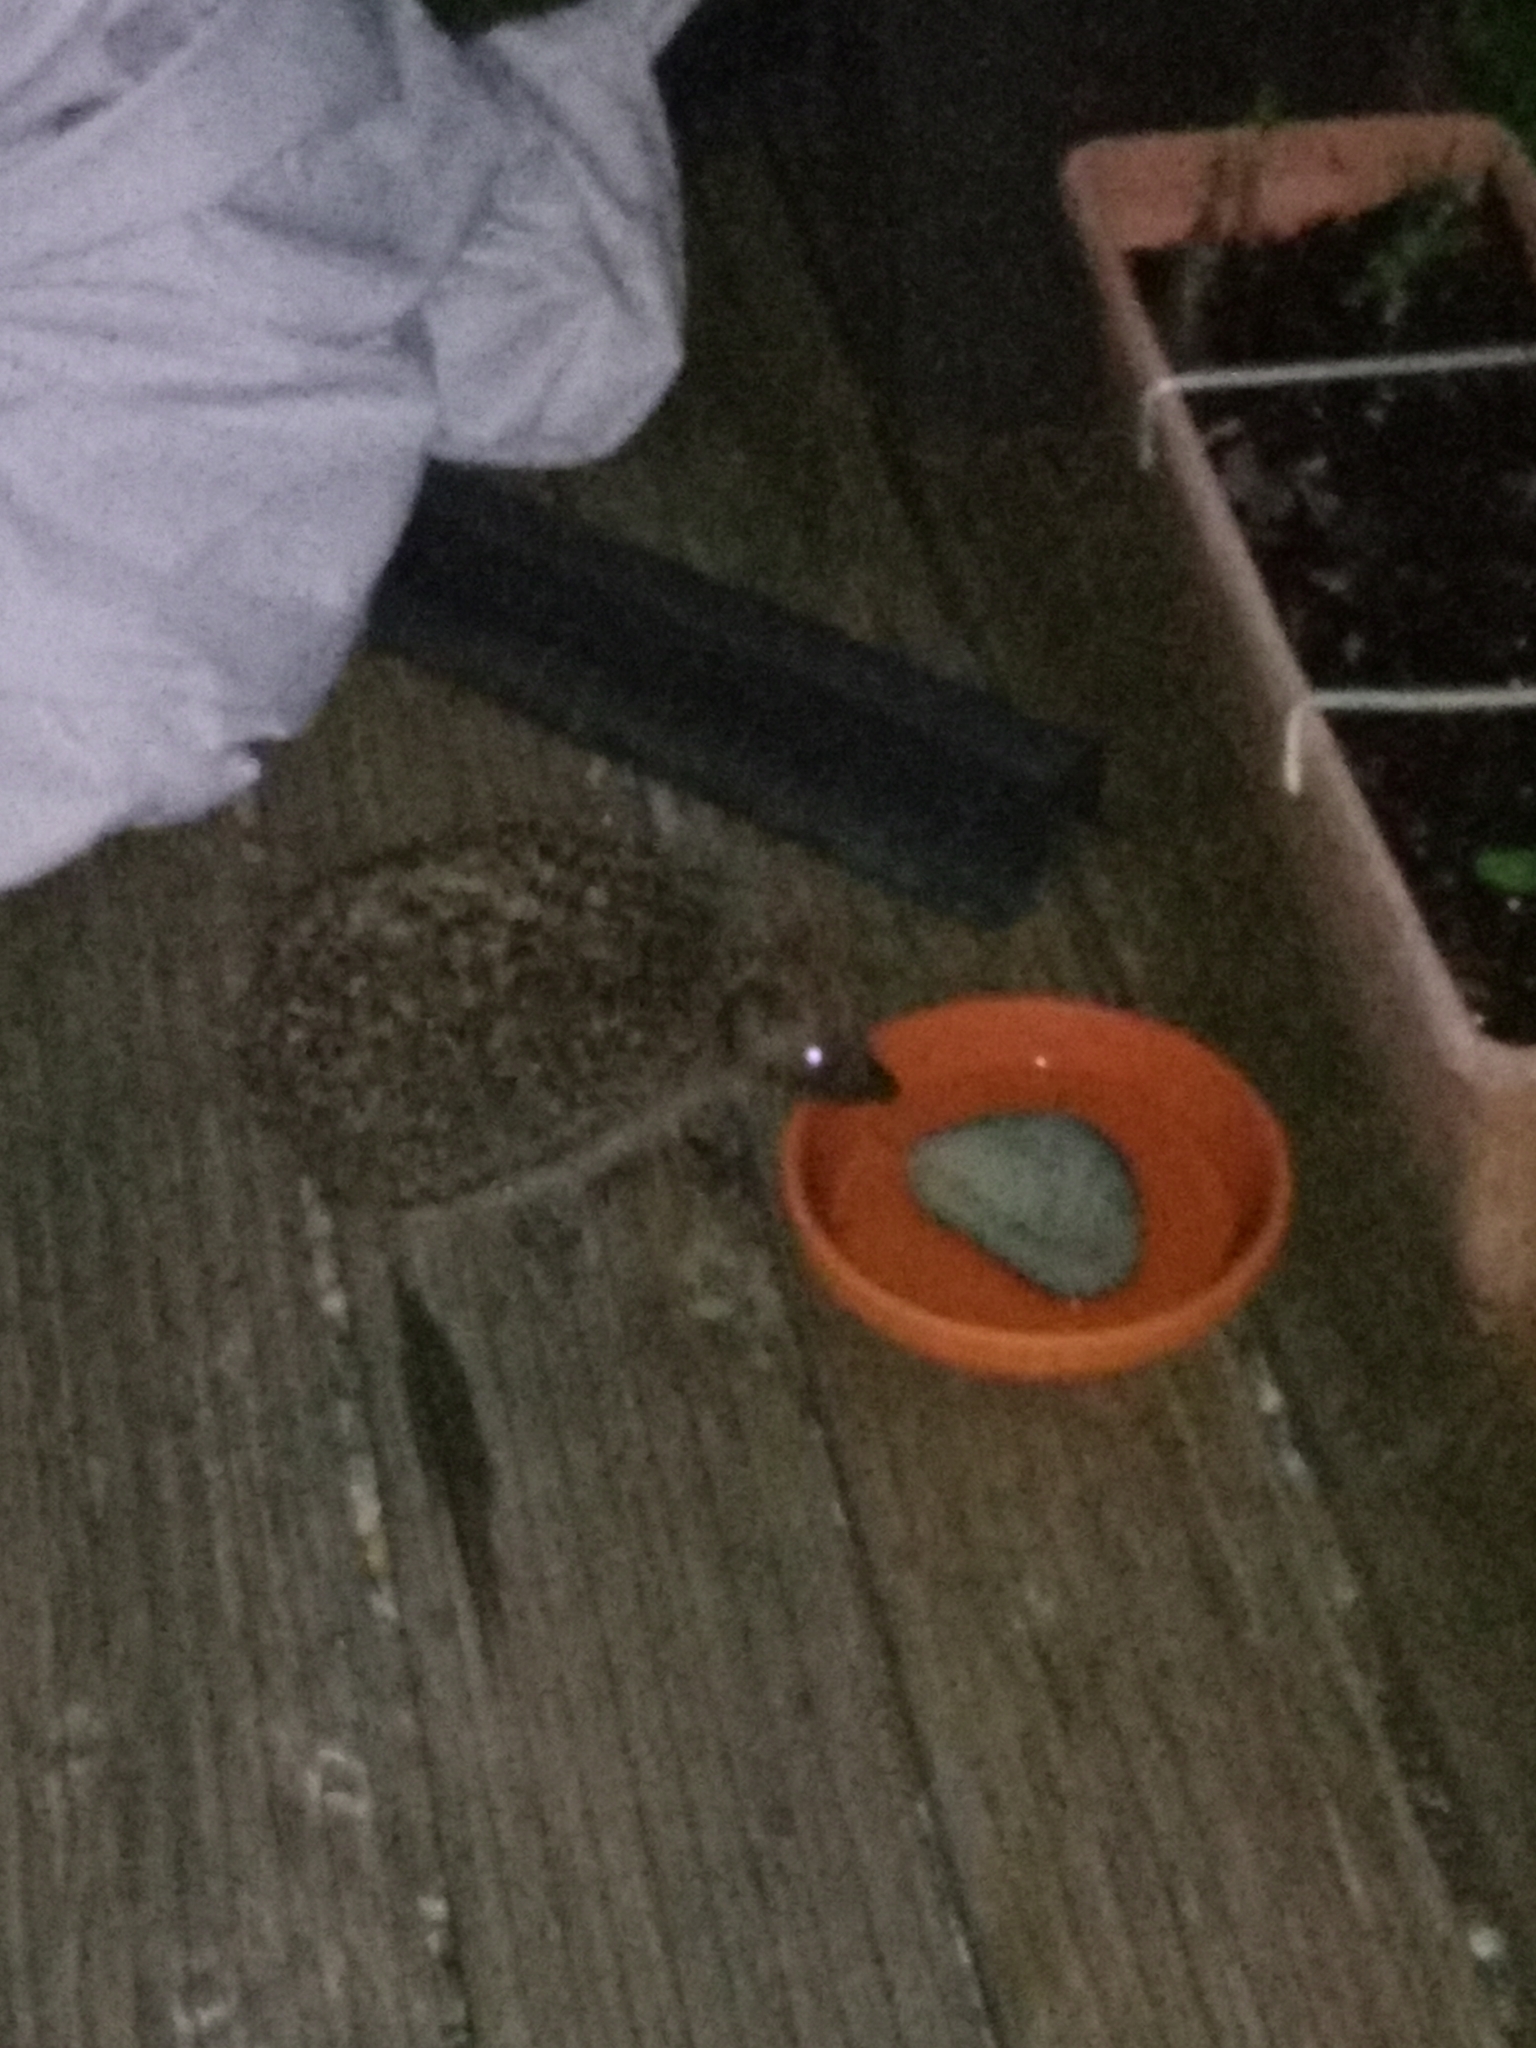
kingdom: Animalia
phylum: Chordata
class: Mammalia
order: Erinaceomorpha
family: Erinaceidae
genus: Erinaceus
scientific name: Erinaceus europaeus
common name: West european hedgehog
